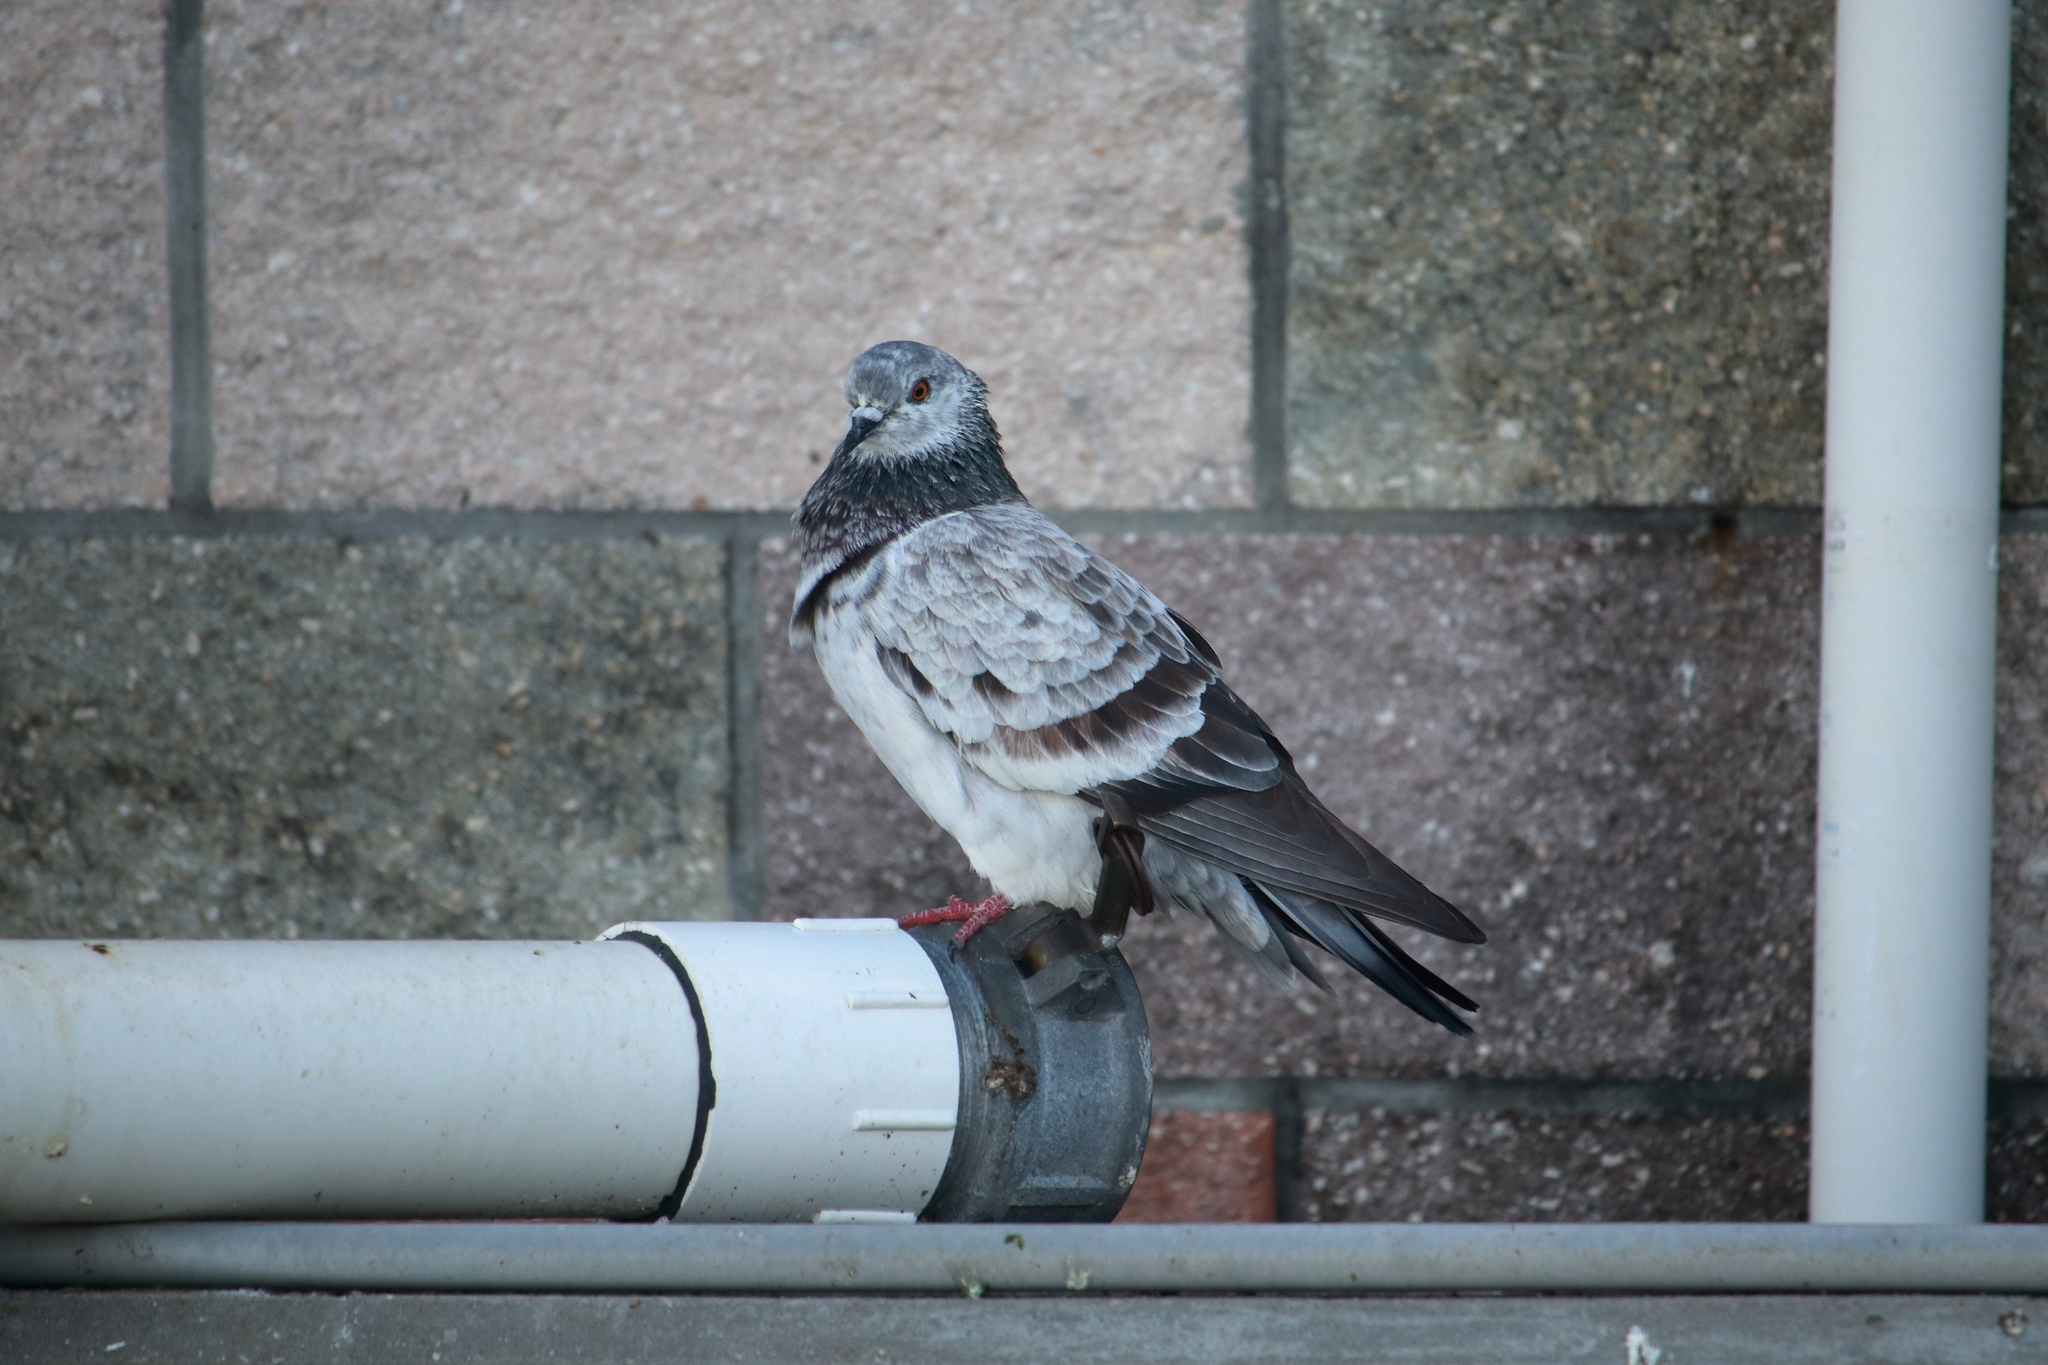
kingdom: Animalia
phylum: Chordata
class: Aves
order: Columbiformes
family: Columbidae
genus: Columba
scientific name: Columba livia
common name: Rock pigeon
